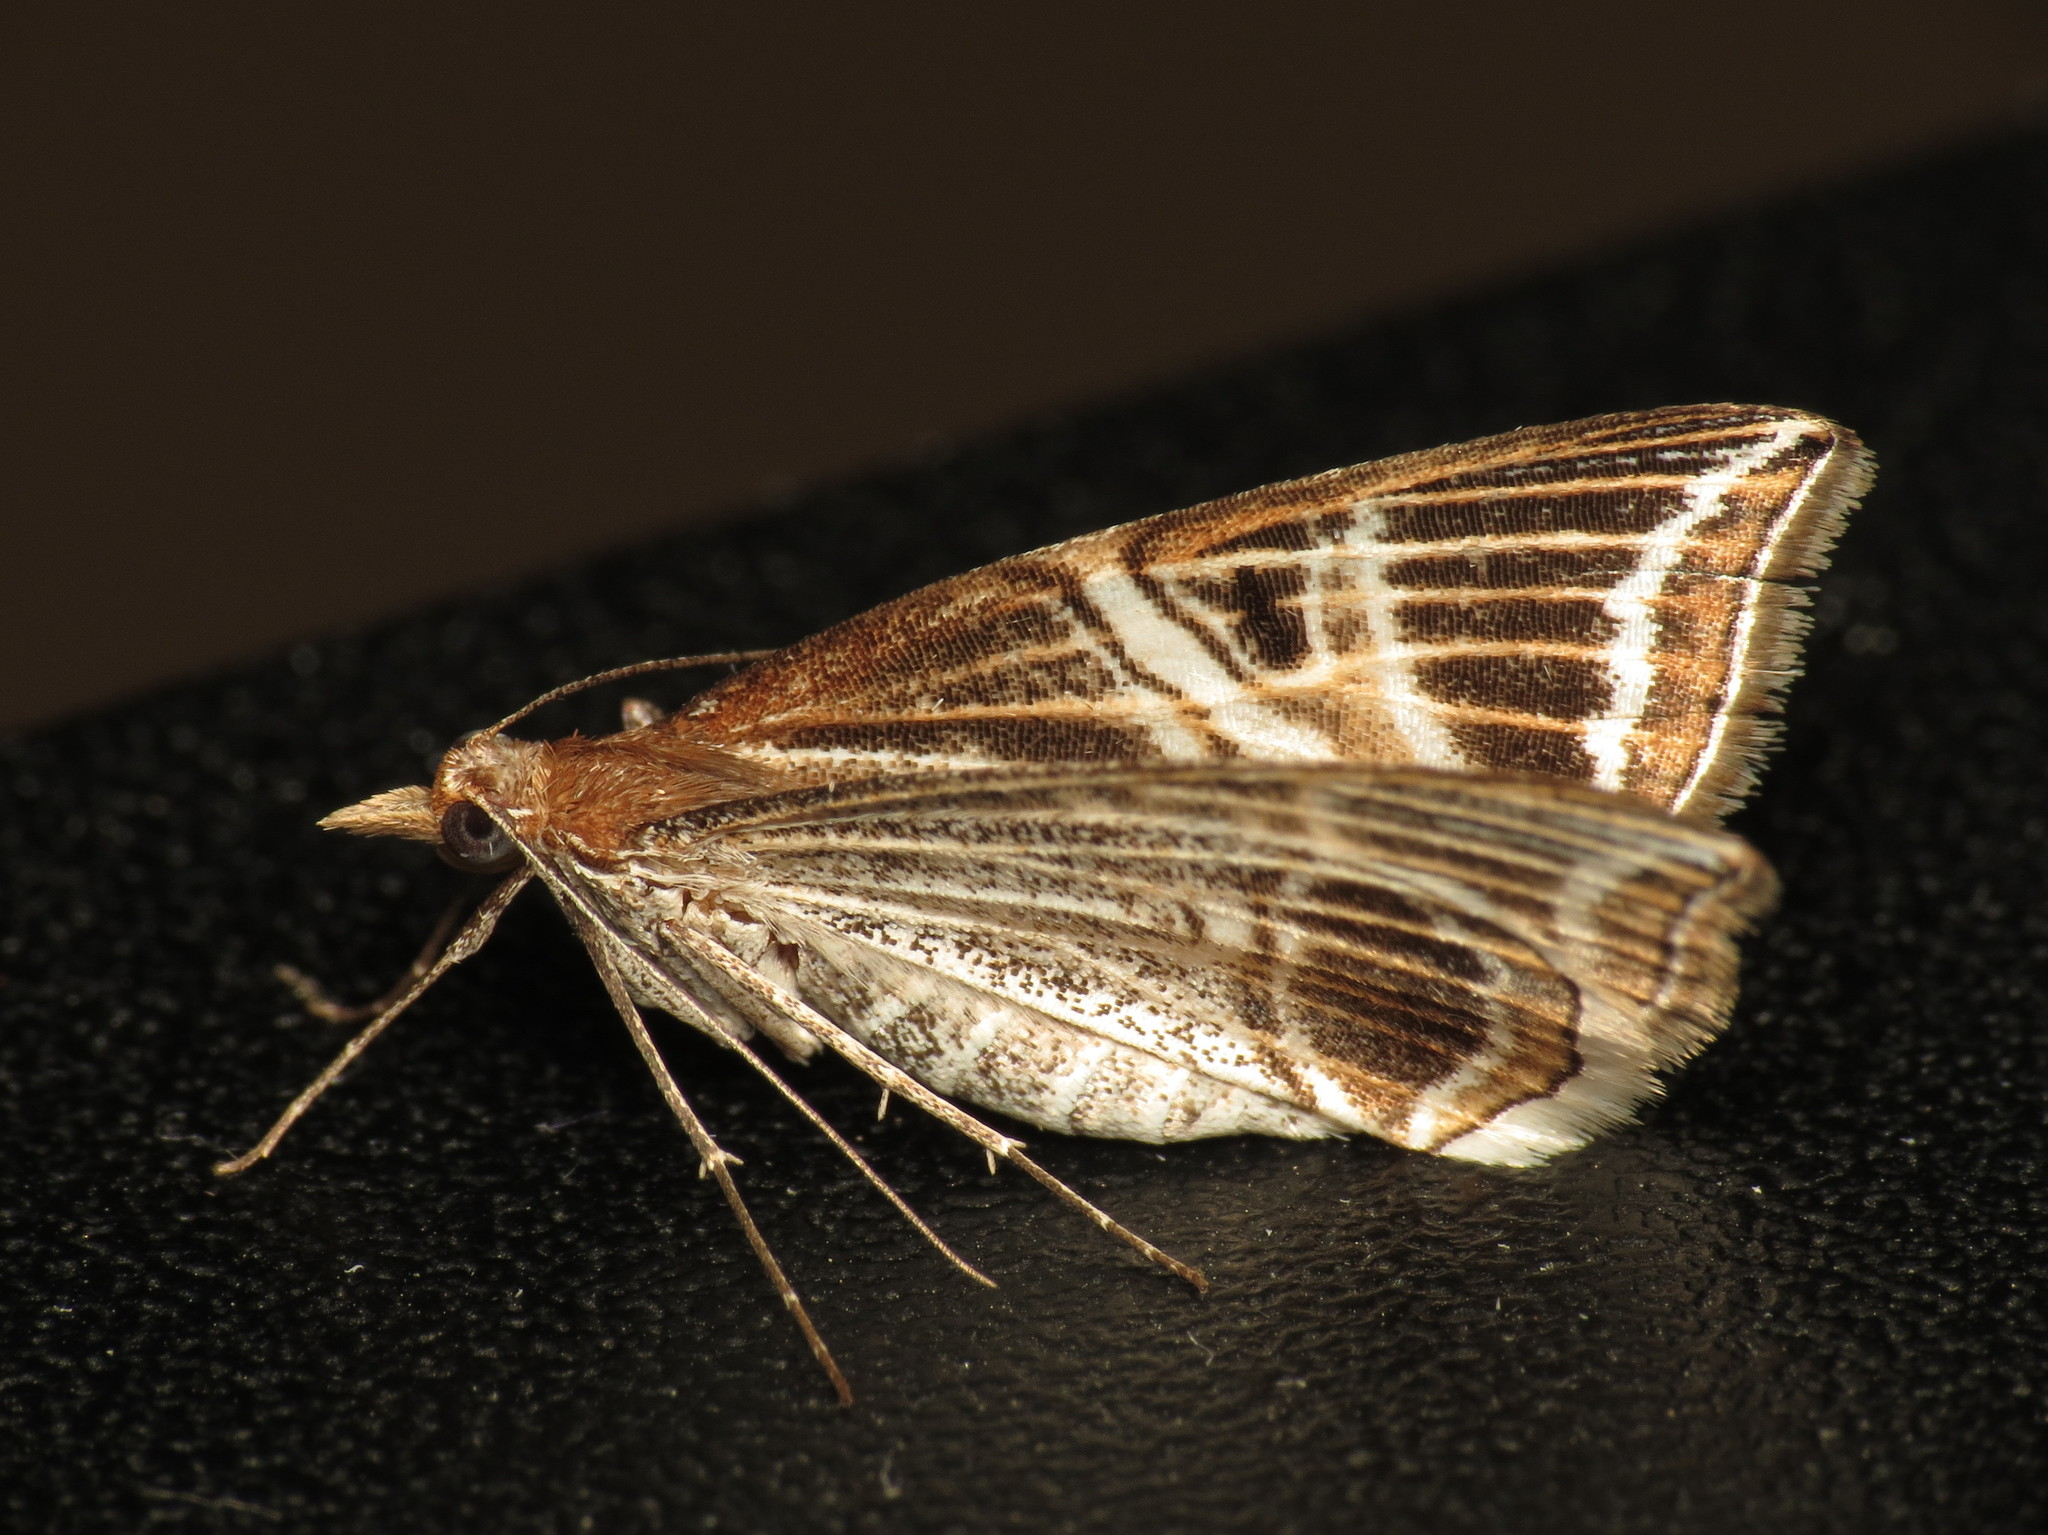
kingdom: Animalia
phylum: Arthropoda
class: Insecta
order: Lepidoptera
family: Geometridae
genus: Phrataria
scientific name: Phrataria transcissata
